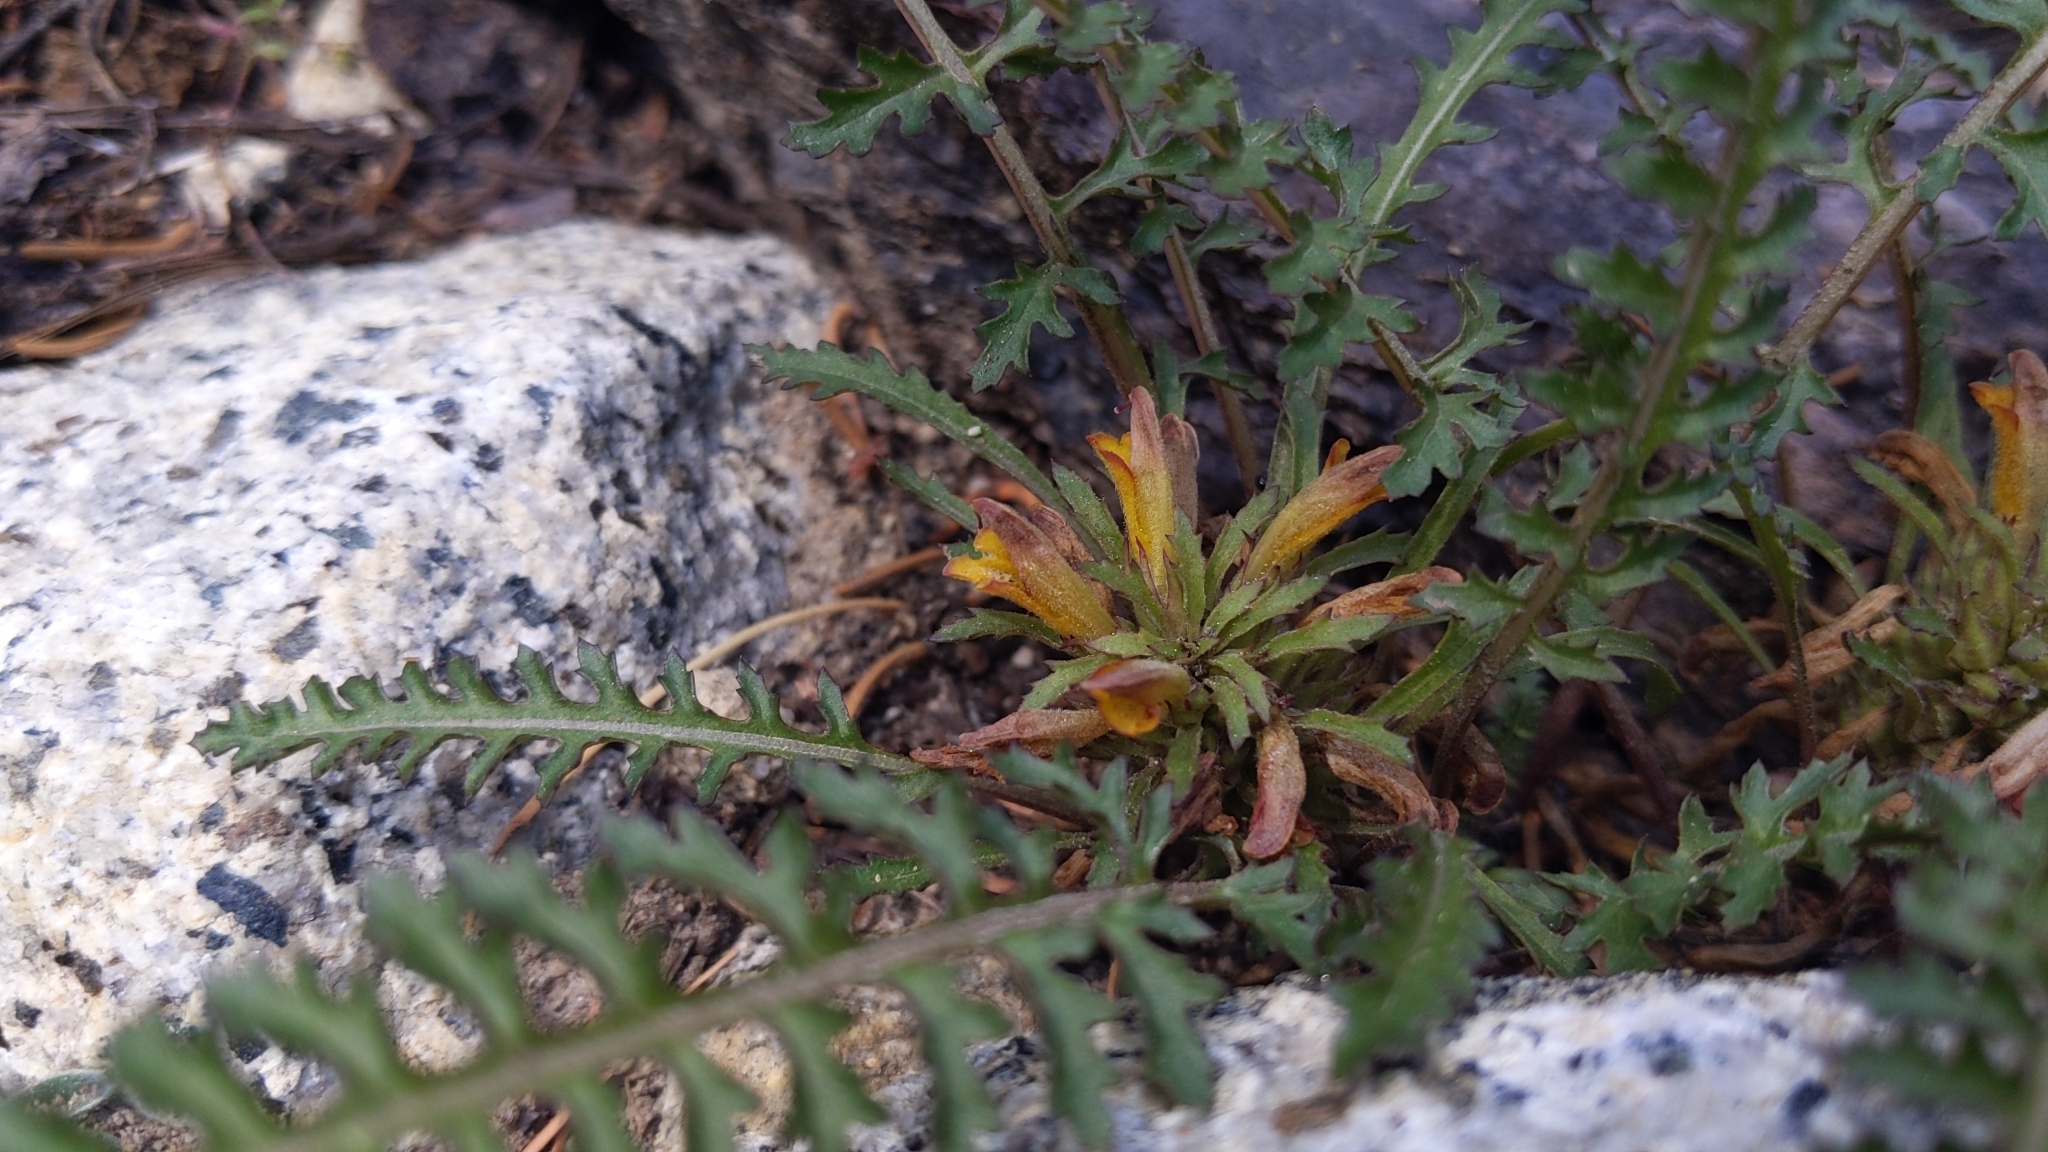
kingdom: Plantae
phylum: Tracheophyta
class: Magnoliopsida
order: Lamiales
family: Orobanchaceae
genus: Pedicularis
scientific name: Pedicularis semibarbata
